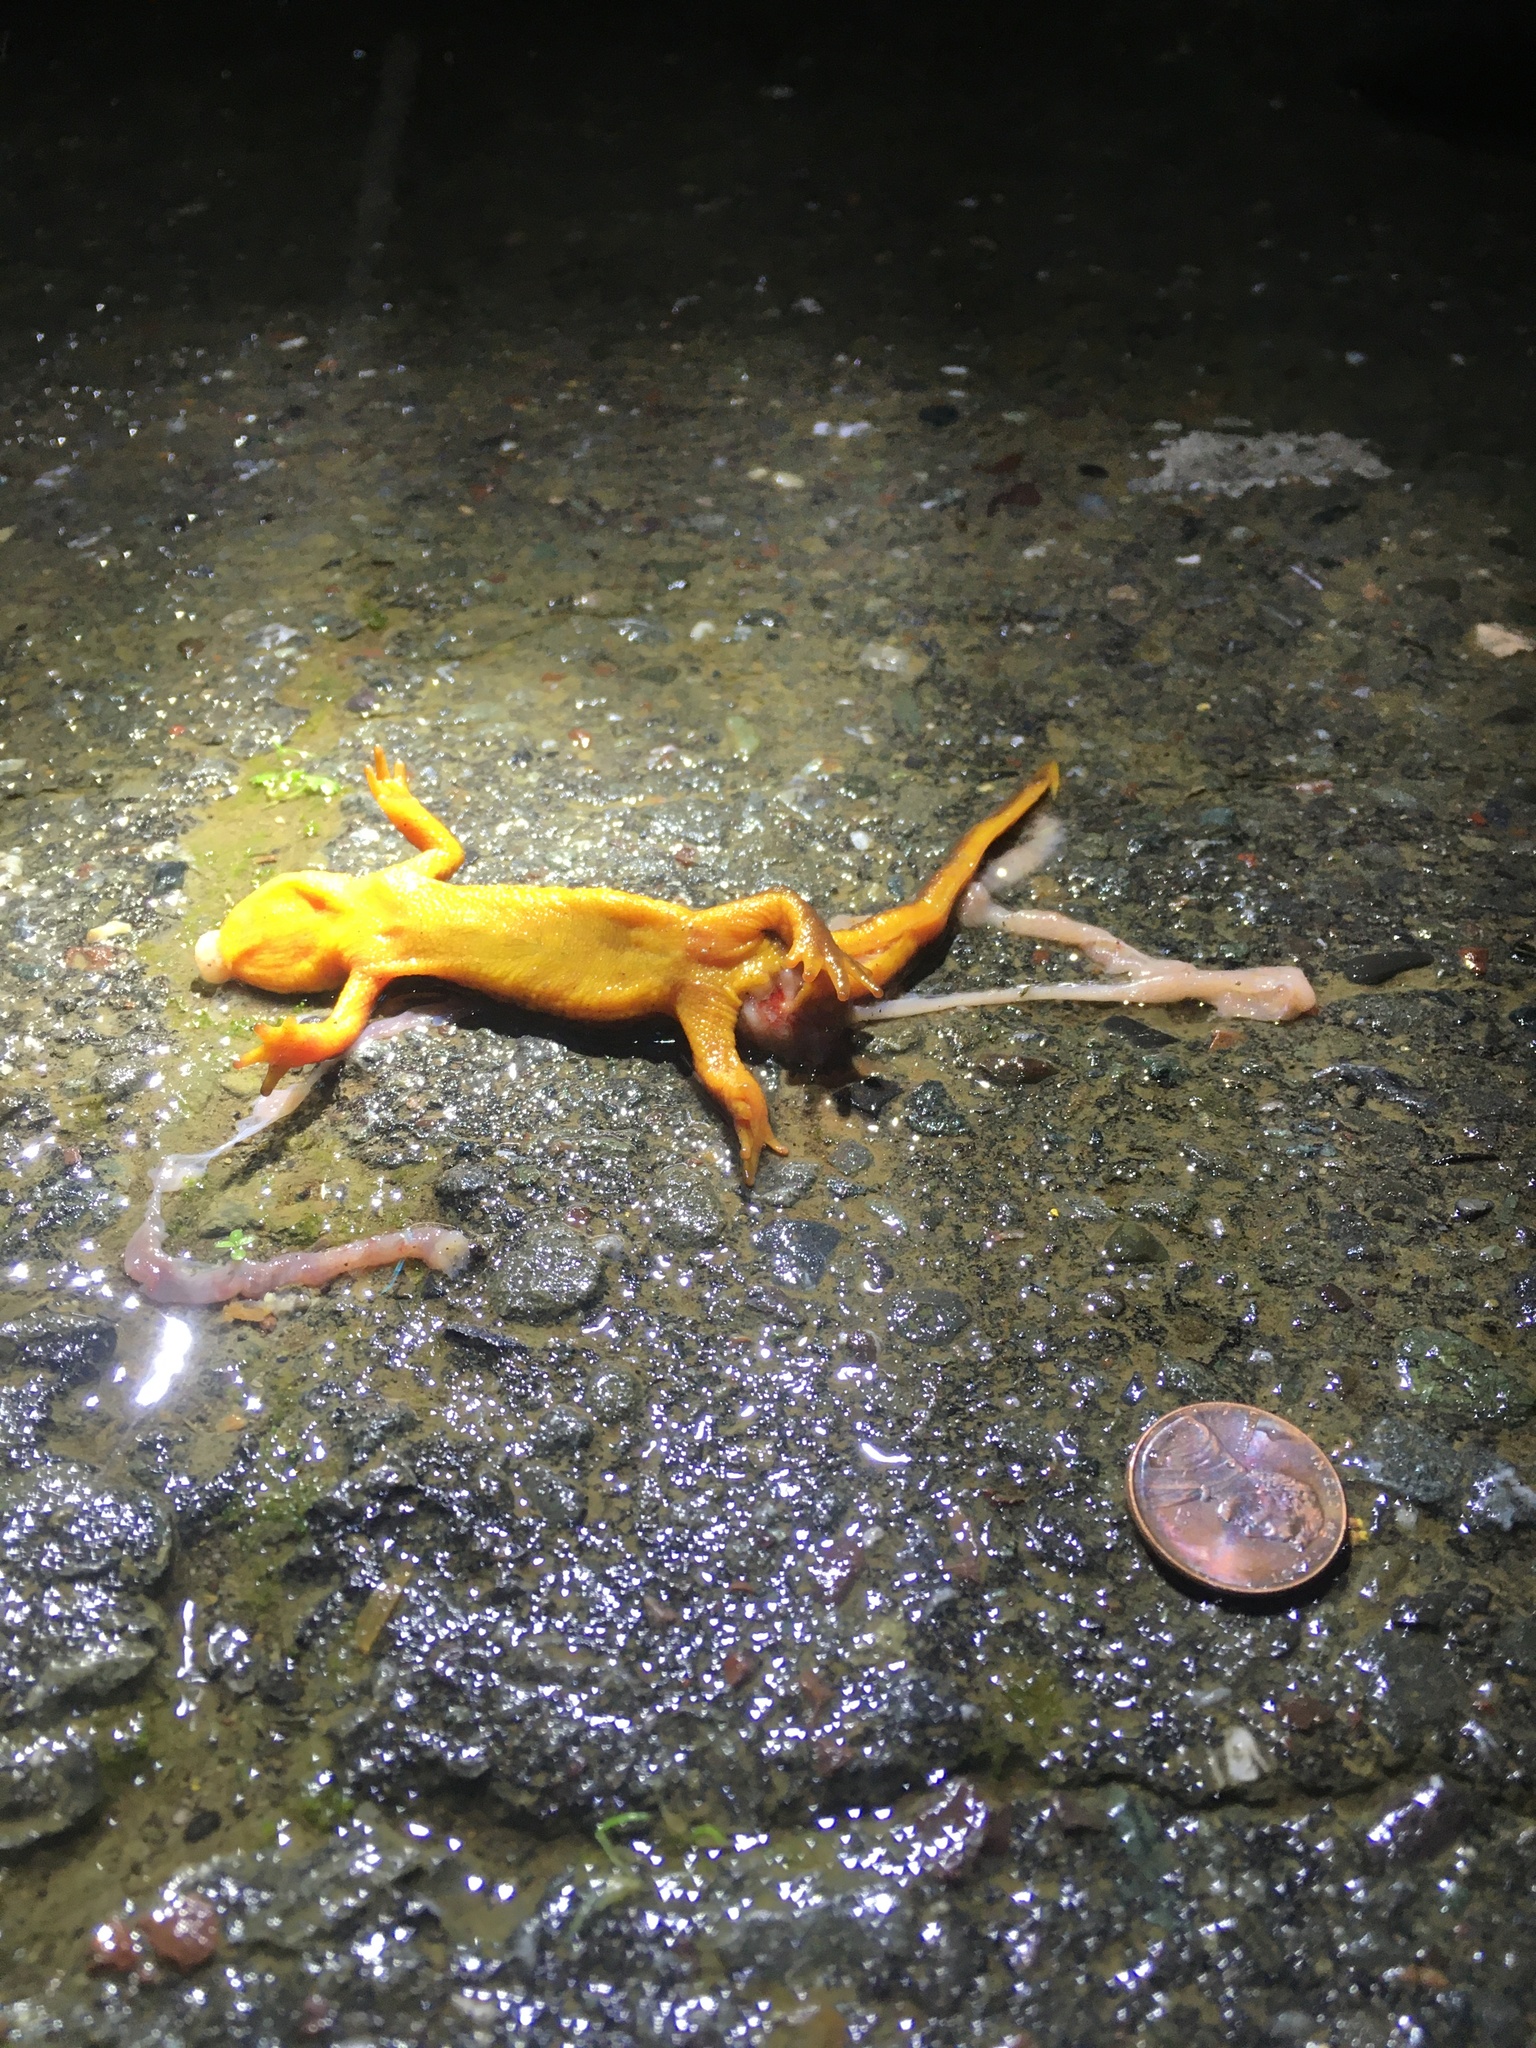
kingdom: Animalia
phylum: Chordata
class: Amphibia
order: Caudata
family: Salamandridae
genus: Taricha
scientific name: Taricha
